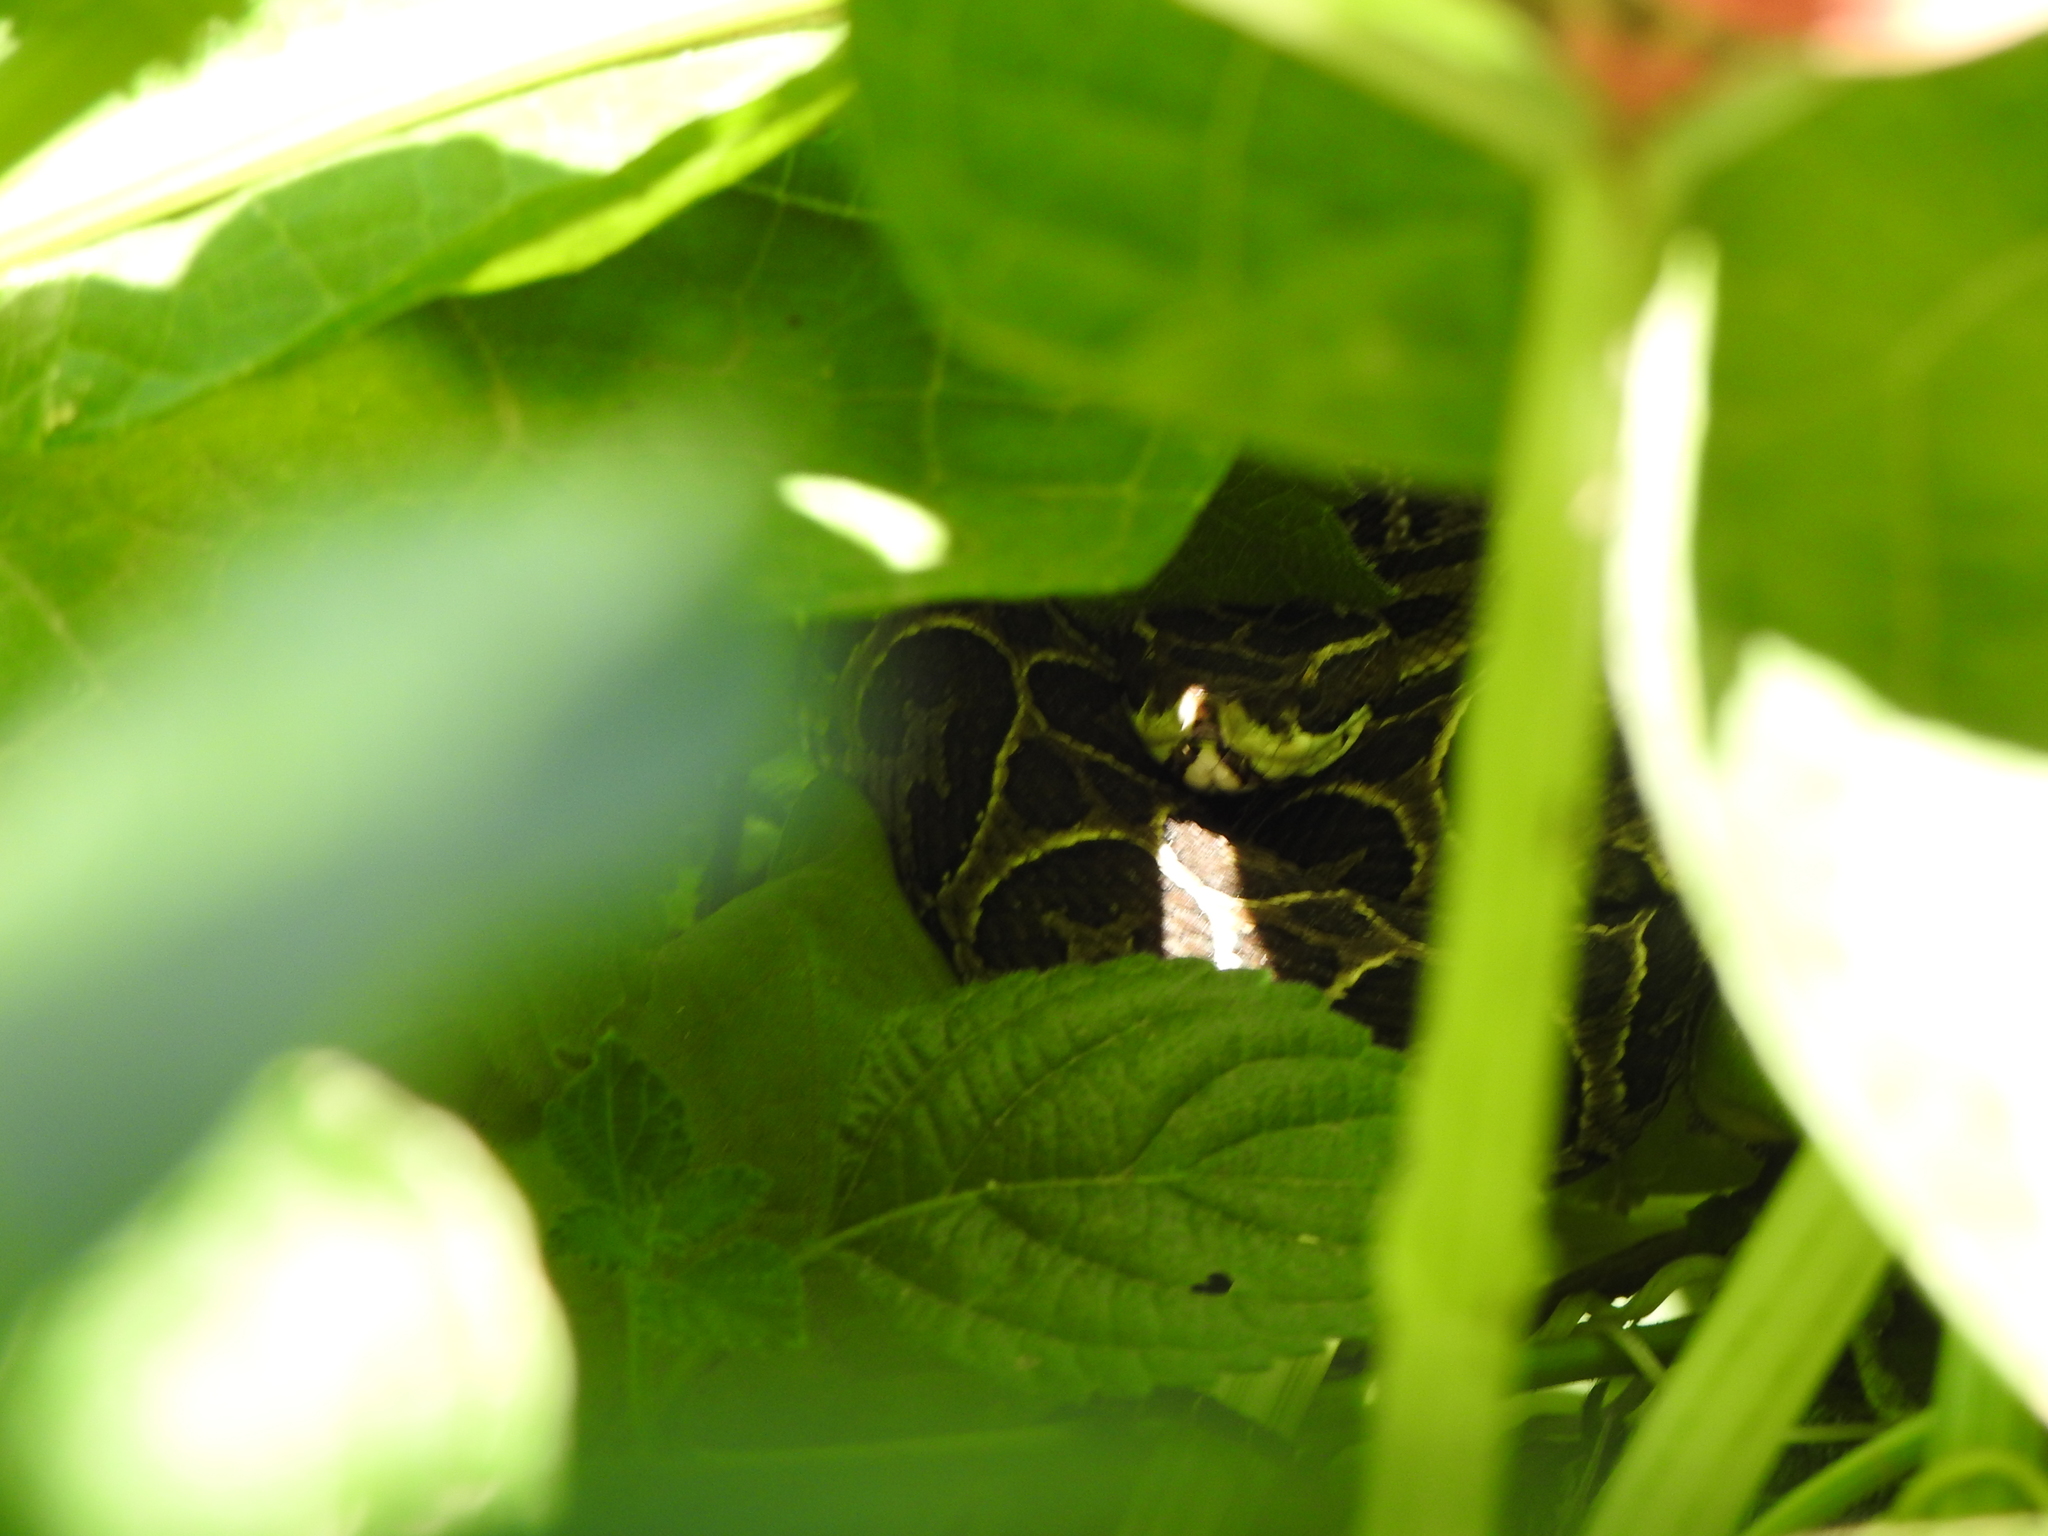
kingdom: Animalia
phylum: Chordata
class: Squamata
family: Viperidae
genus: Bothrops
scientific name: Bothrops alternatus
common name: Urutu
